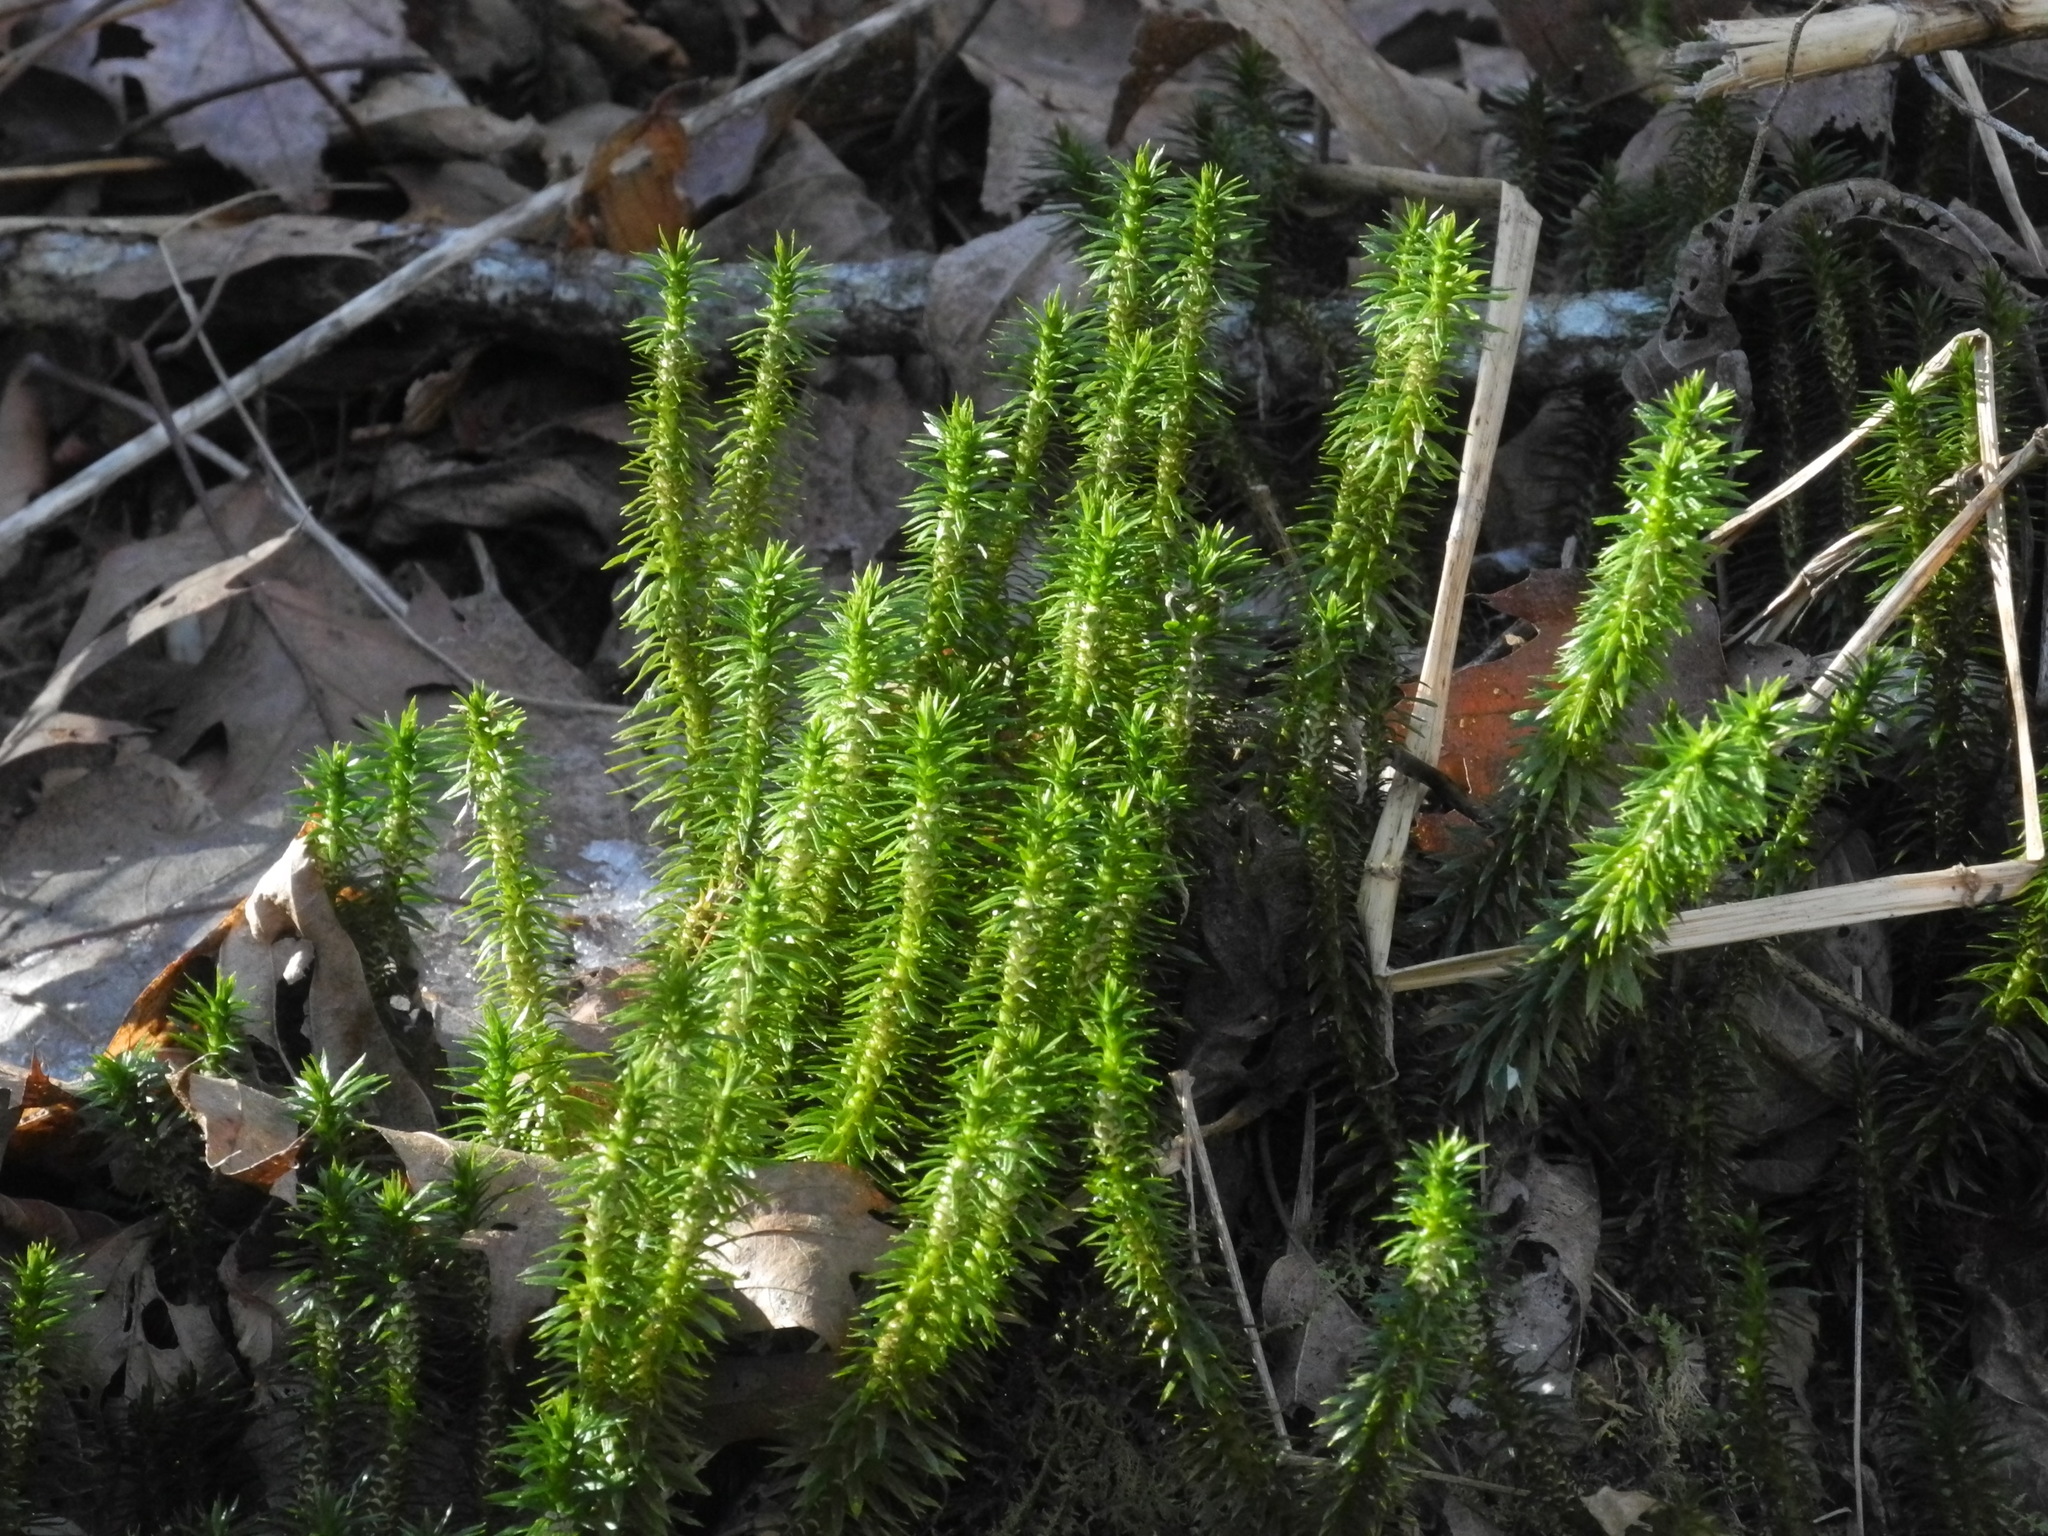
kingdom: Plantae
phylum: Tracheophyta
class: Lycopodiopsida
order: Lycopodiales
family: Lycopodiaceae
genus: Huperzia
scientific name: Huperzia lucidula
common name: Shining clubmoss
